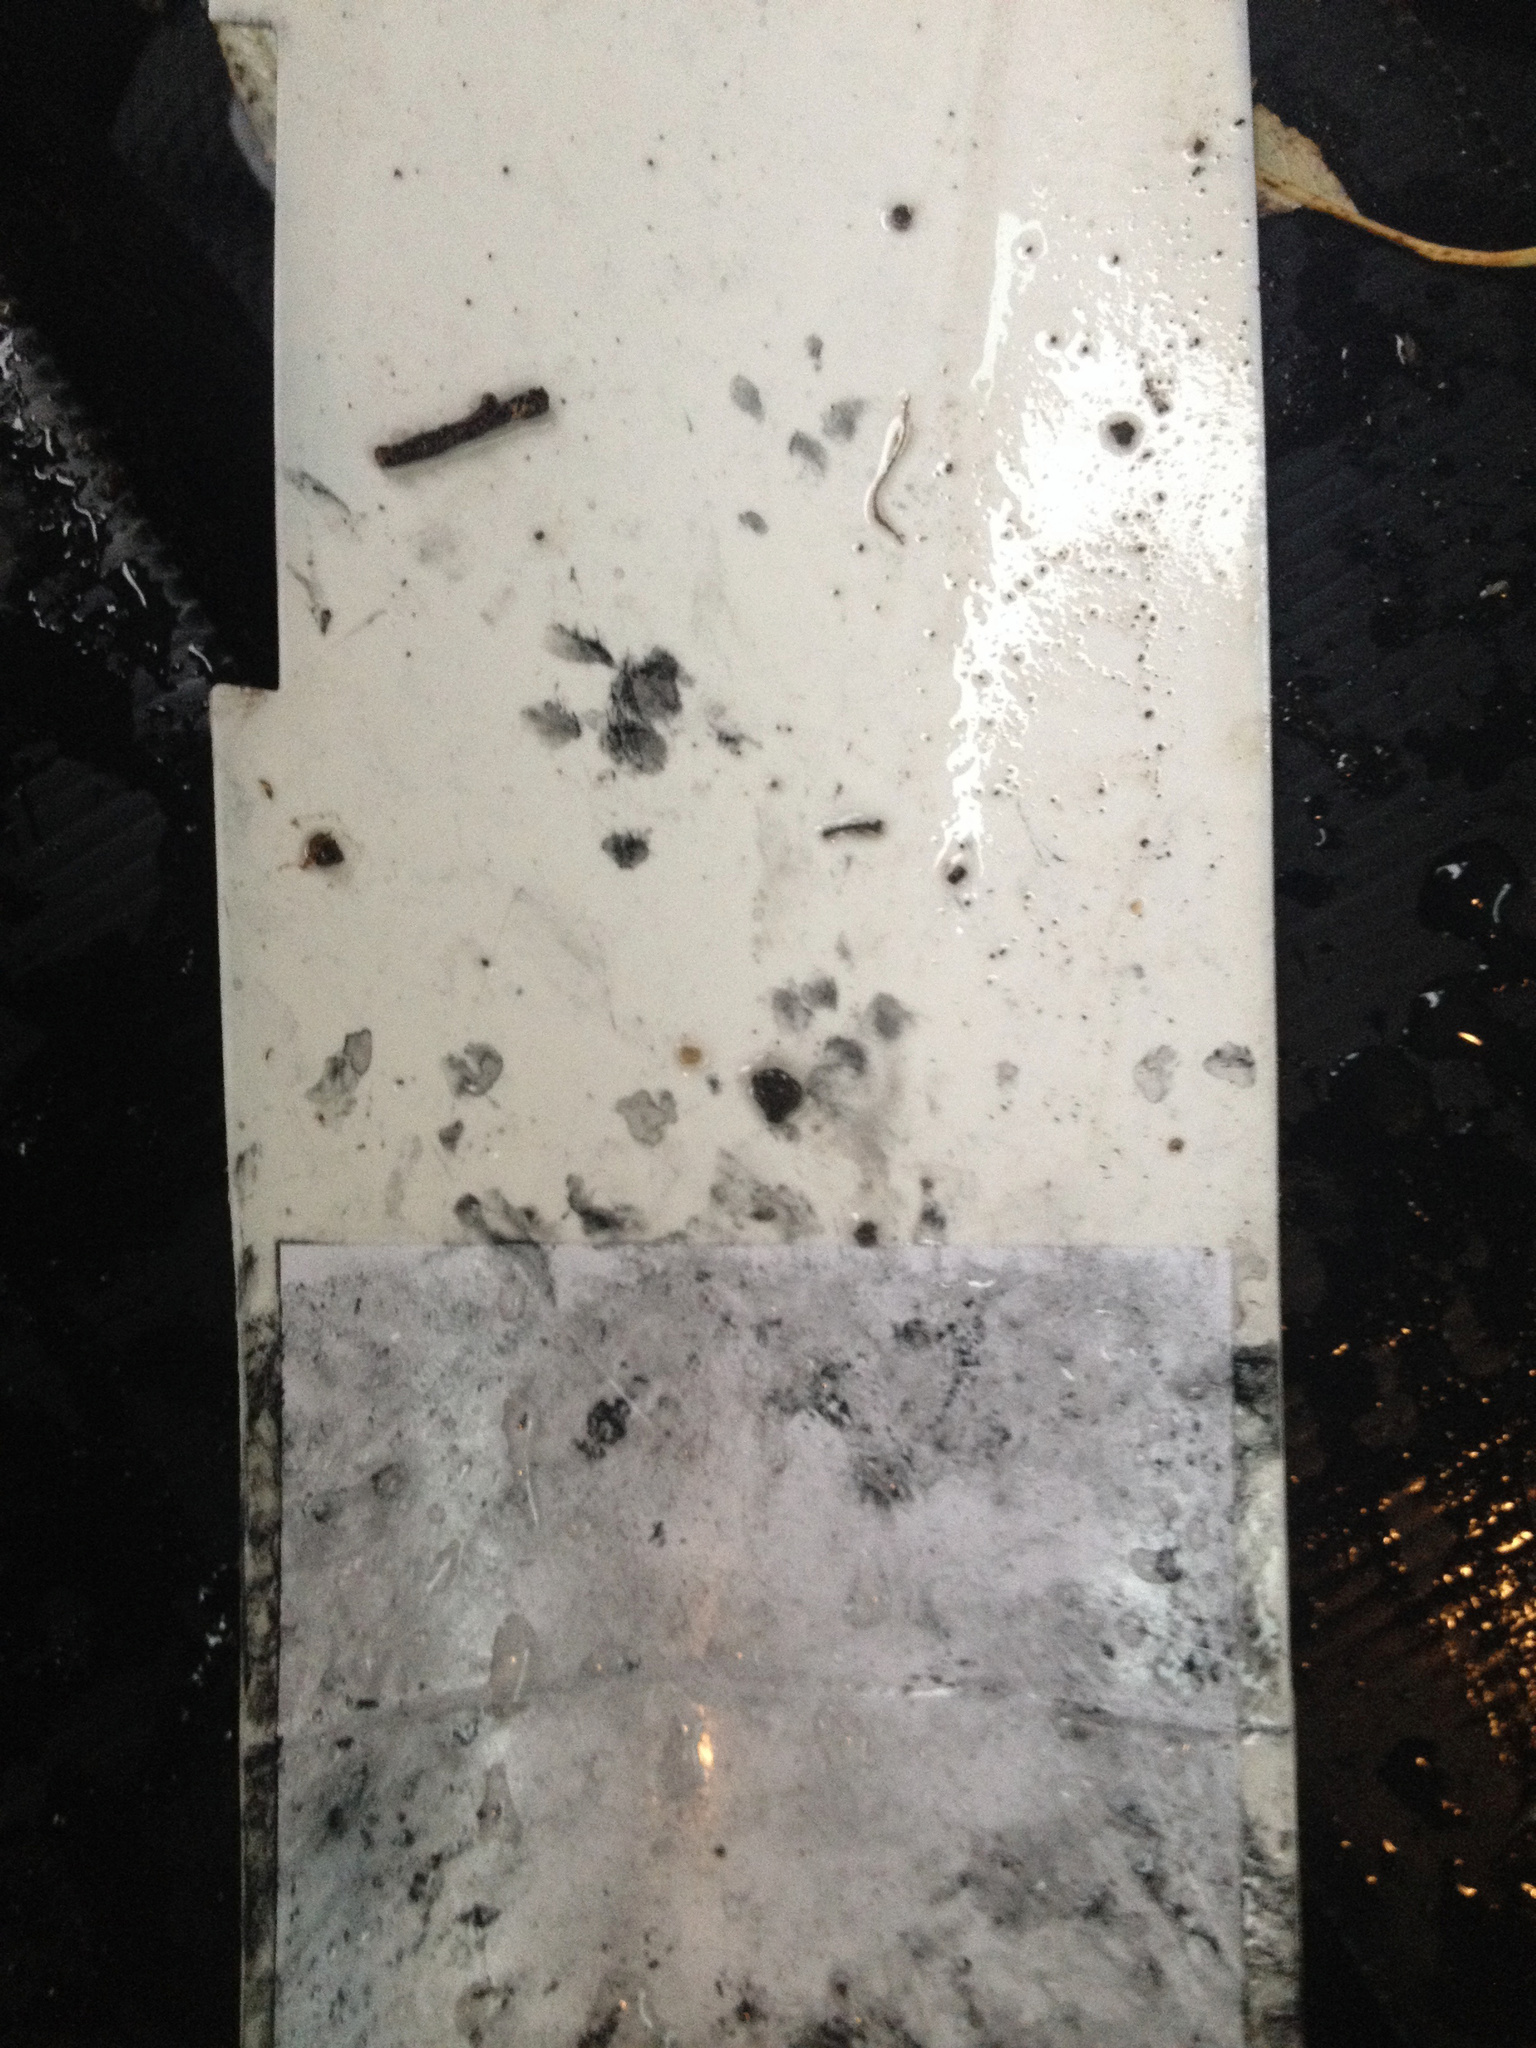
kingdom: Animalia
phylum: Chordata
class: Mammalia
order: Erinaceomorpha
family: Erinaceidae
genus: Erinaceus
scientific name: Erinaceus europaeus
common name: West european hedgehog
